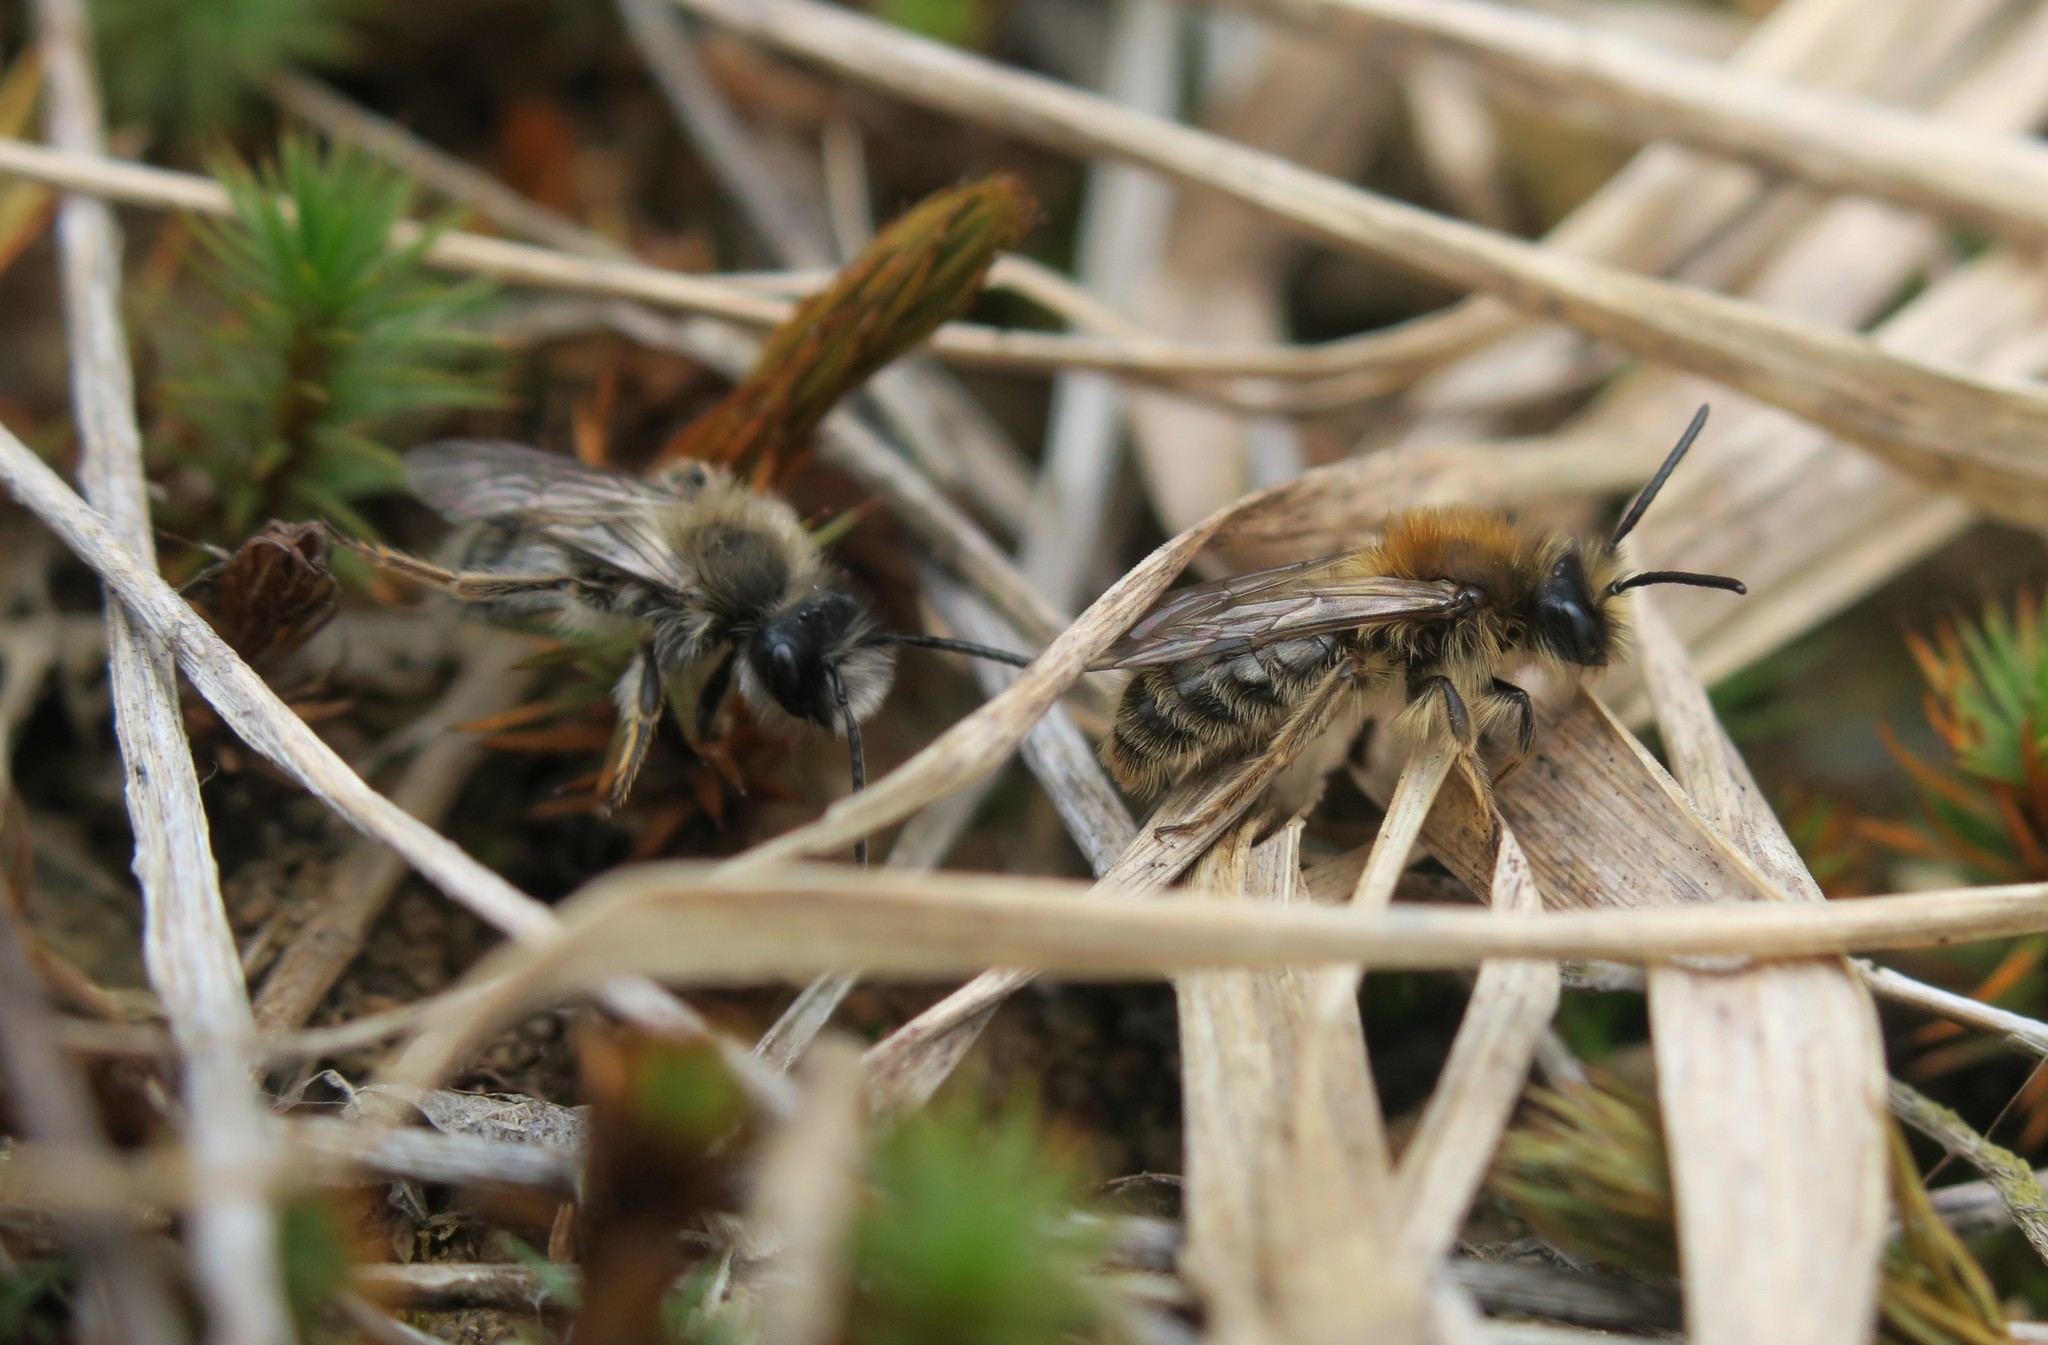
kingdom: Animalia
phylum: Arthropoda
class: Insecta
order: Hymenoptera
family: Andrenidae
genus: Andrena
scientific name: Andrena clarkella
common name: Clarke's mining bee
